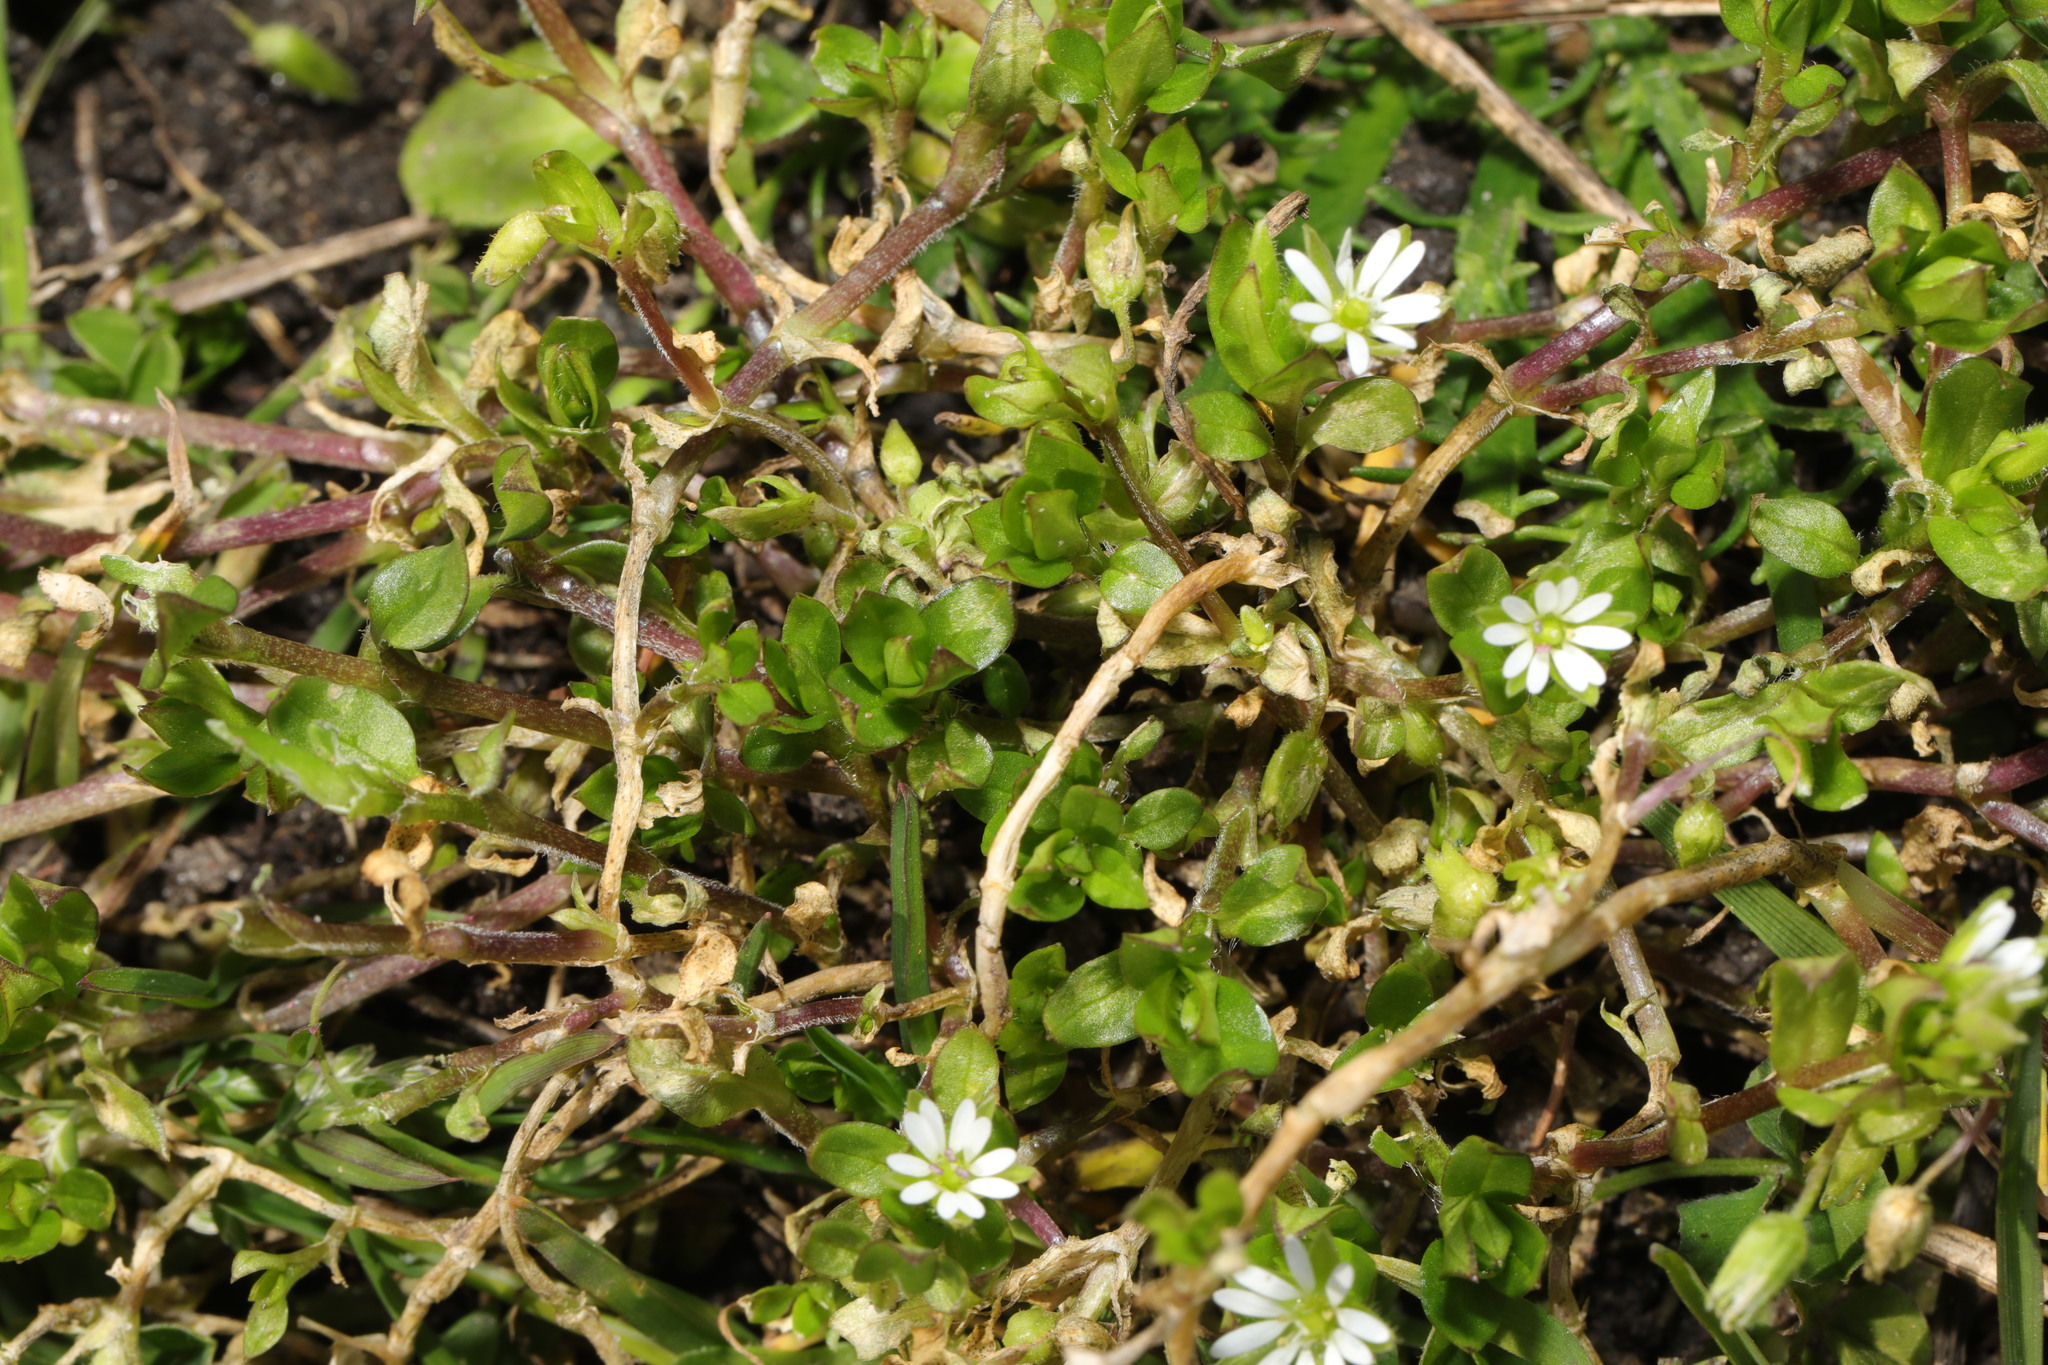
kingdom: Plantae
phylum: Tracheophyta
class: Magnoliopsida
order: Caryophyllales
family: Caryophyllaceae
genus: Stellaria
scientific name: Stellaria media
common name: Common chickweed
